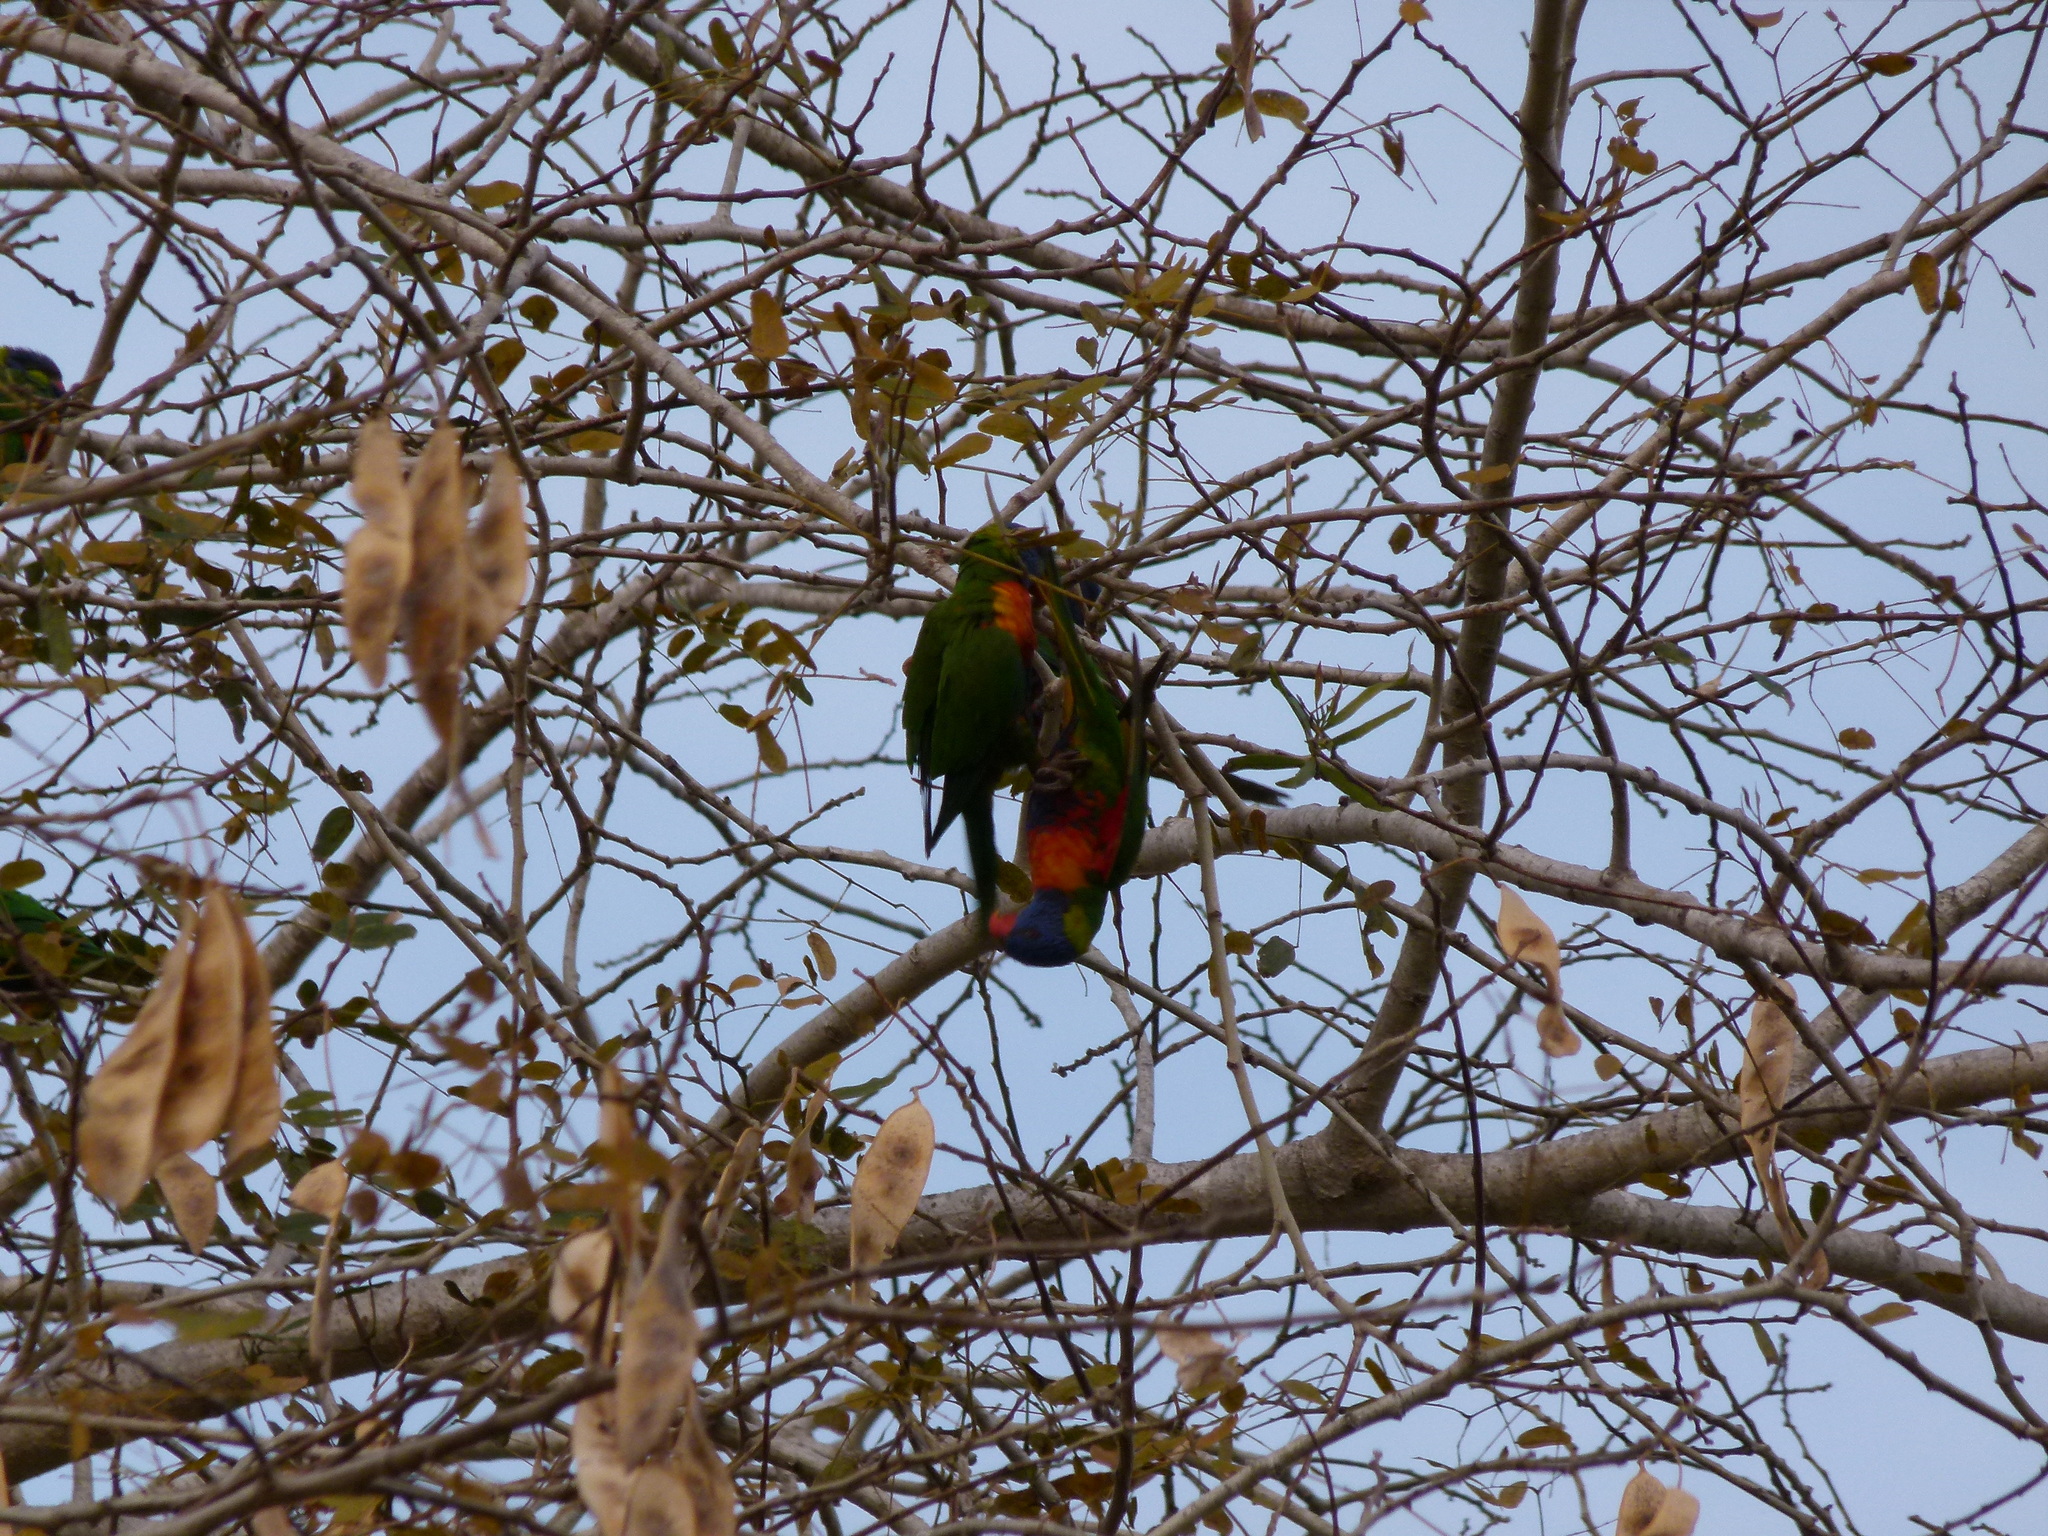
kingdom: Animalia
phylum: Chordata
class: Aves
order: Psittaciformes
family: Psittacidae
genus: Trichoglossus
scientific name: Trichoglossus haematodus
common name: Coconut lorikeet
